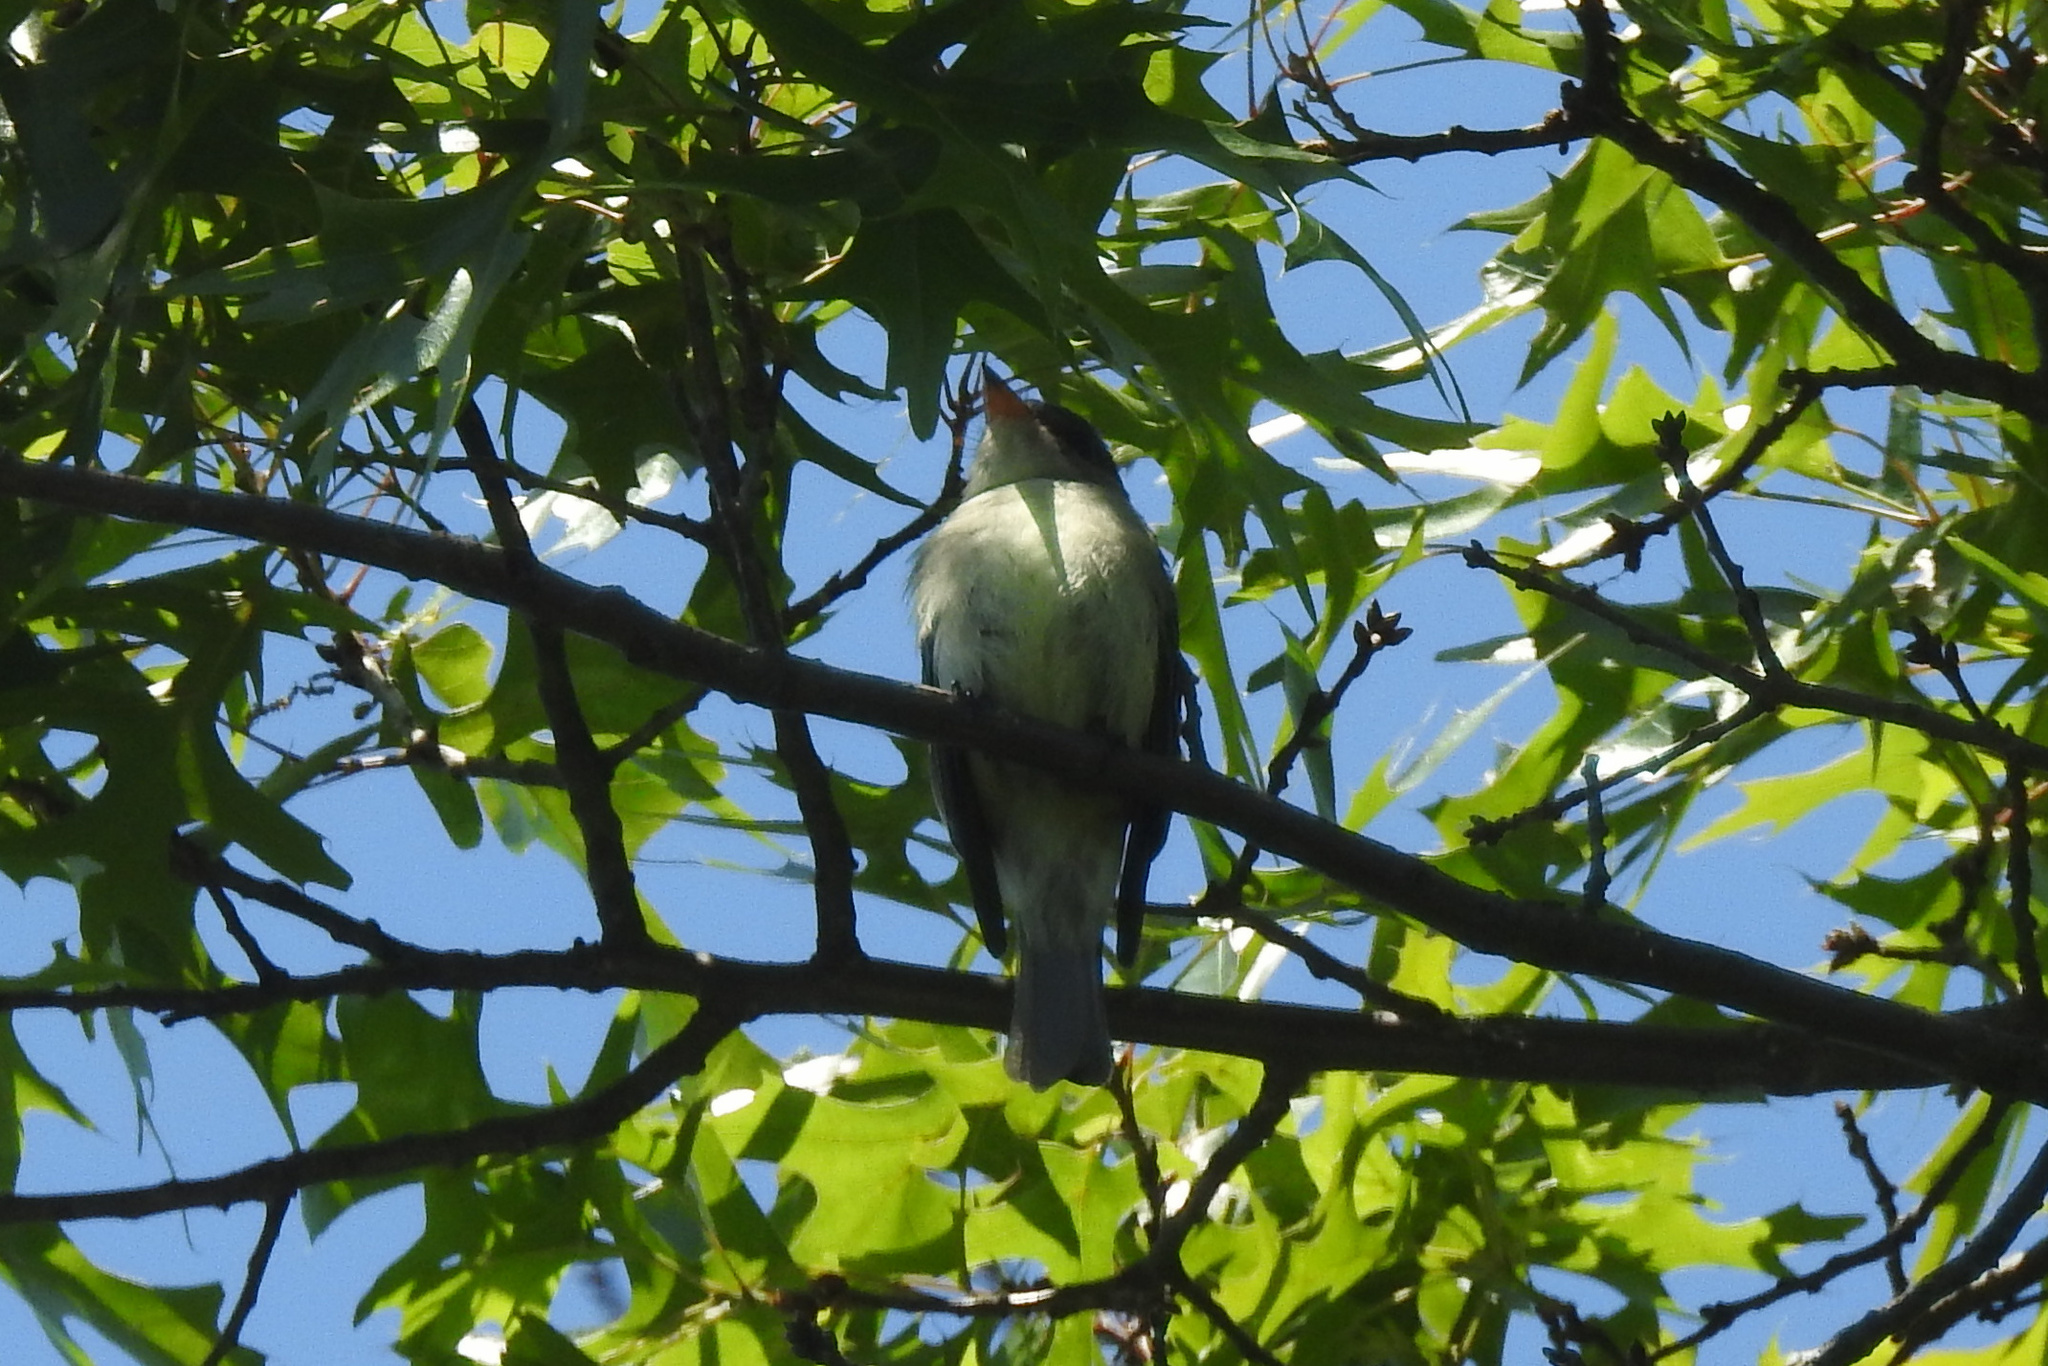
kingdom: Animalia
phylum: Chordata
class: Aves
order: Passeriformes
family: Tyrannidae
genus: Contopus
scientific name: Contopus virens
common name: Eastern wood-pewee
